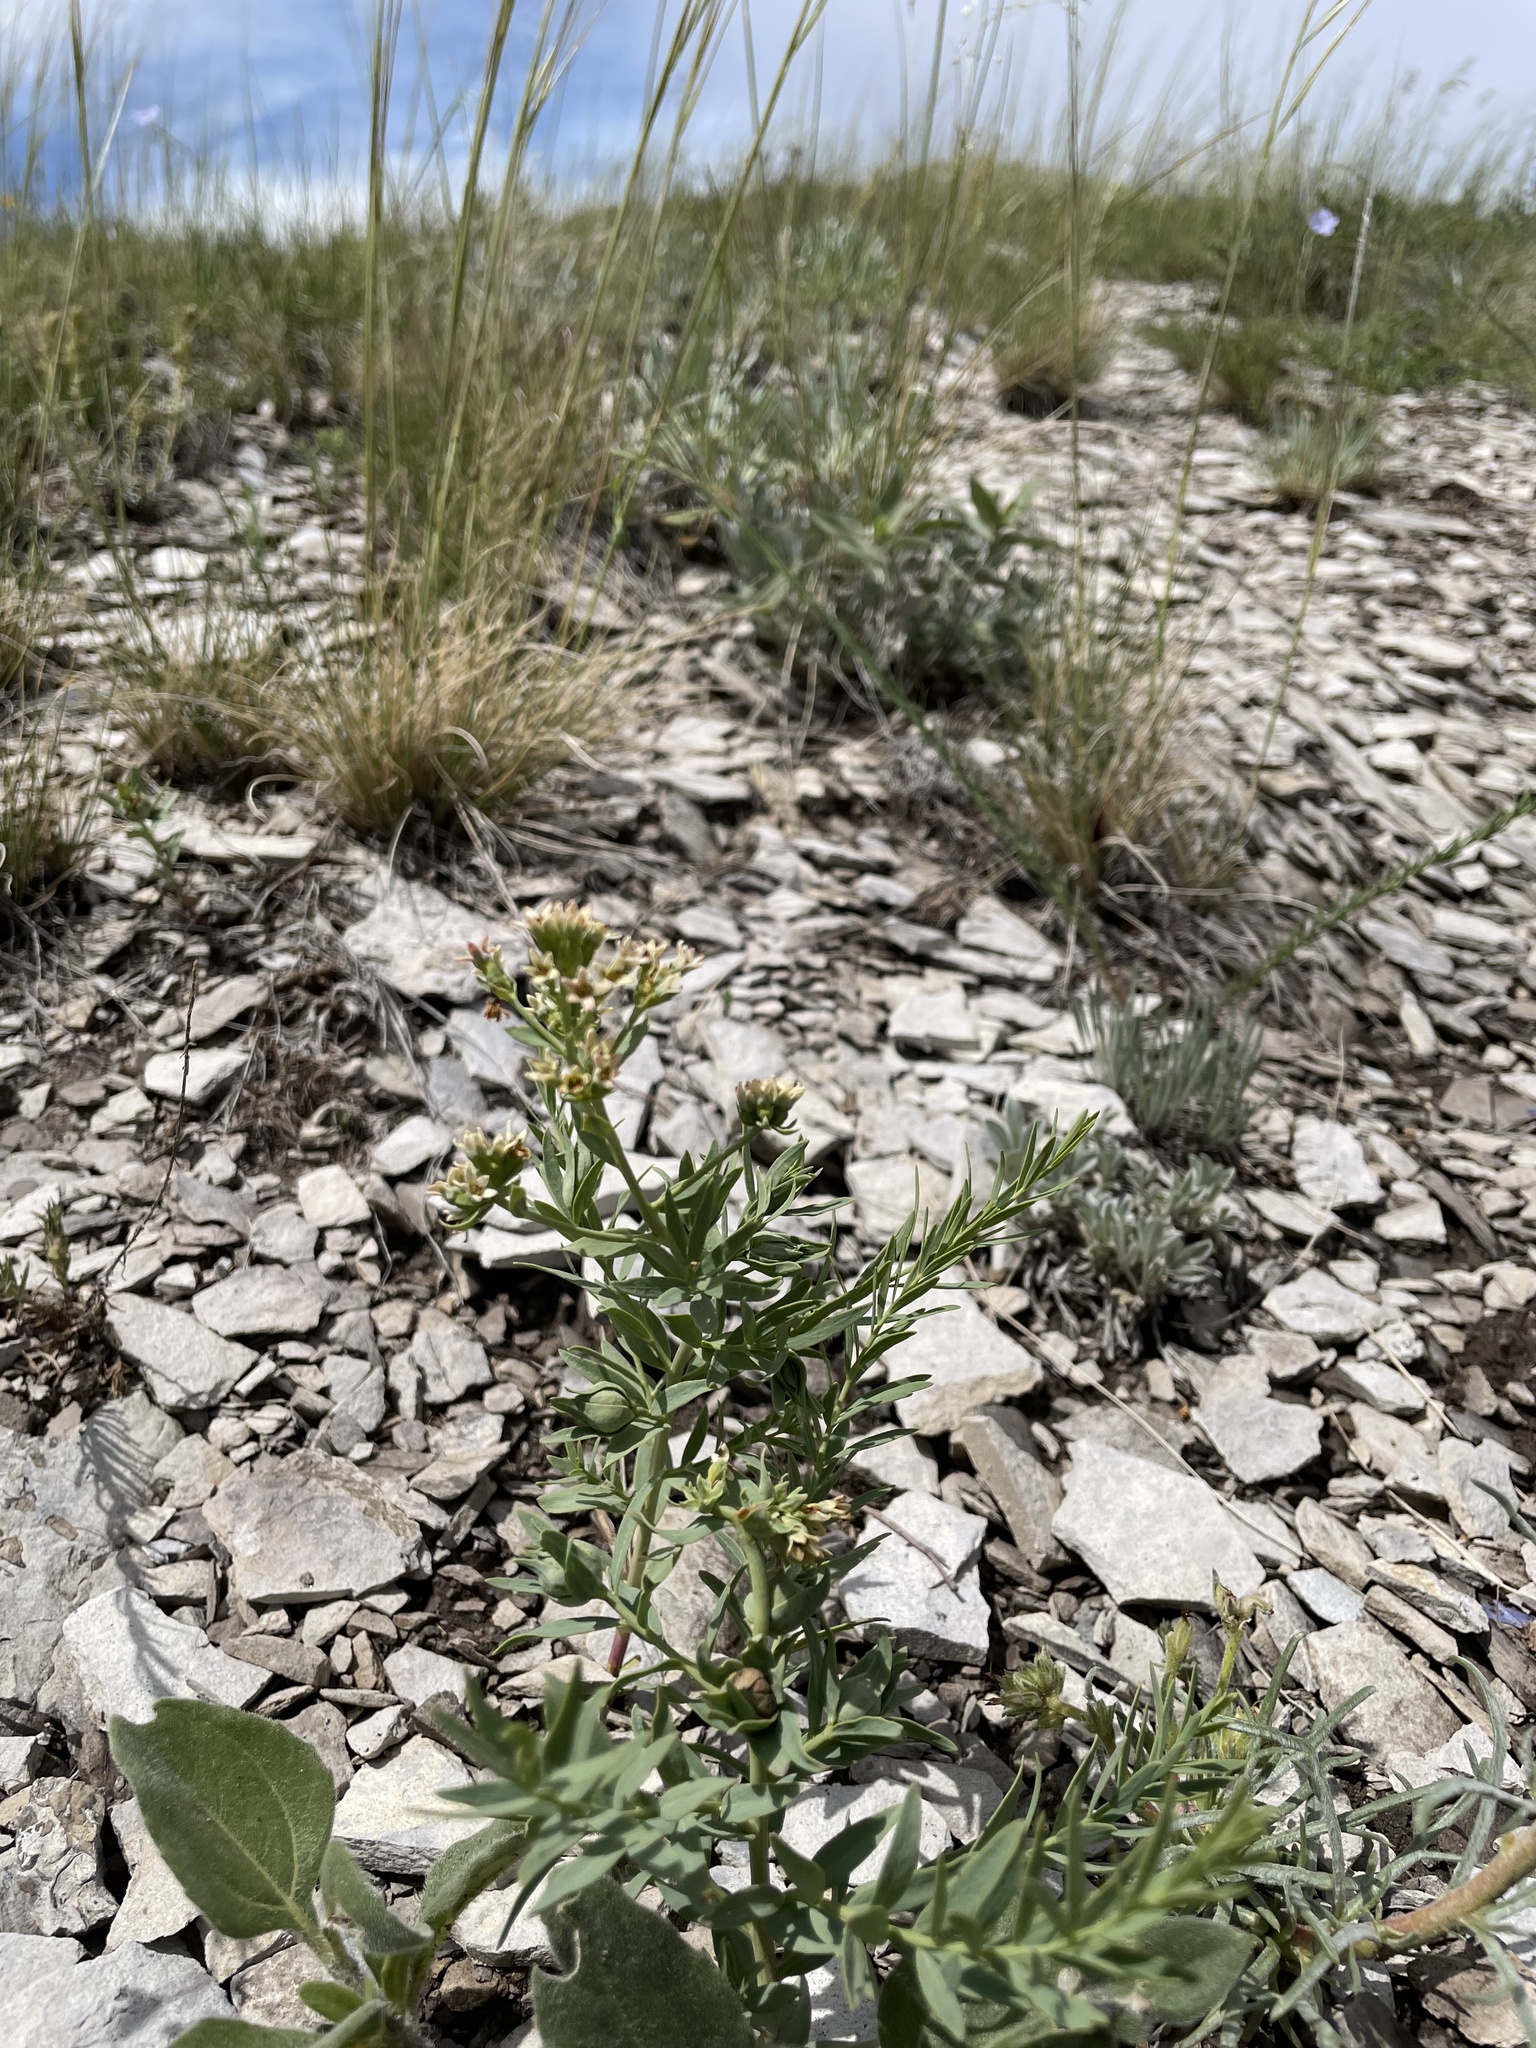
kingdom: Plantae
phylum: Tracheophyta
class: Magnoliopsida
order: Santalales
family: Comandraceae
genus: Comandra
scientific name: Comandra umbellata
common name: Bastard toadflax
